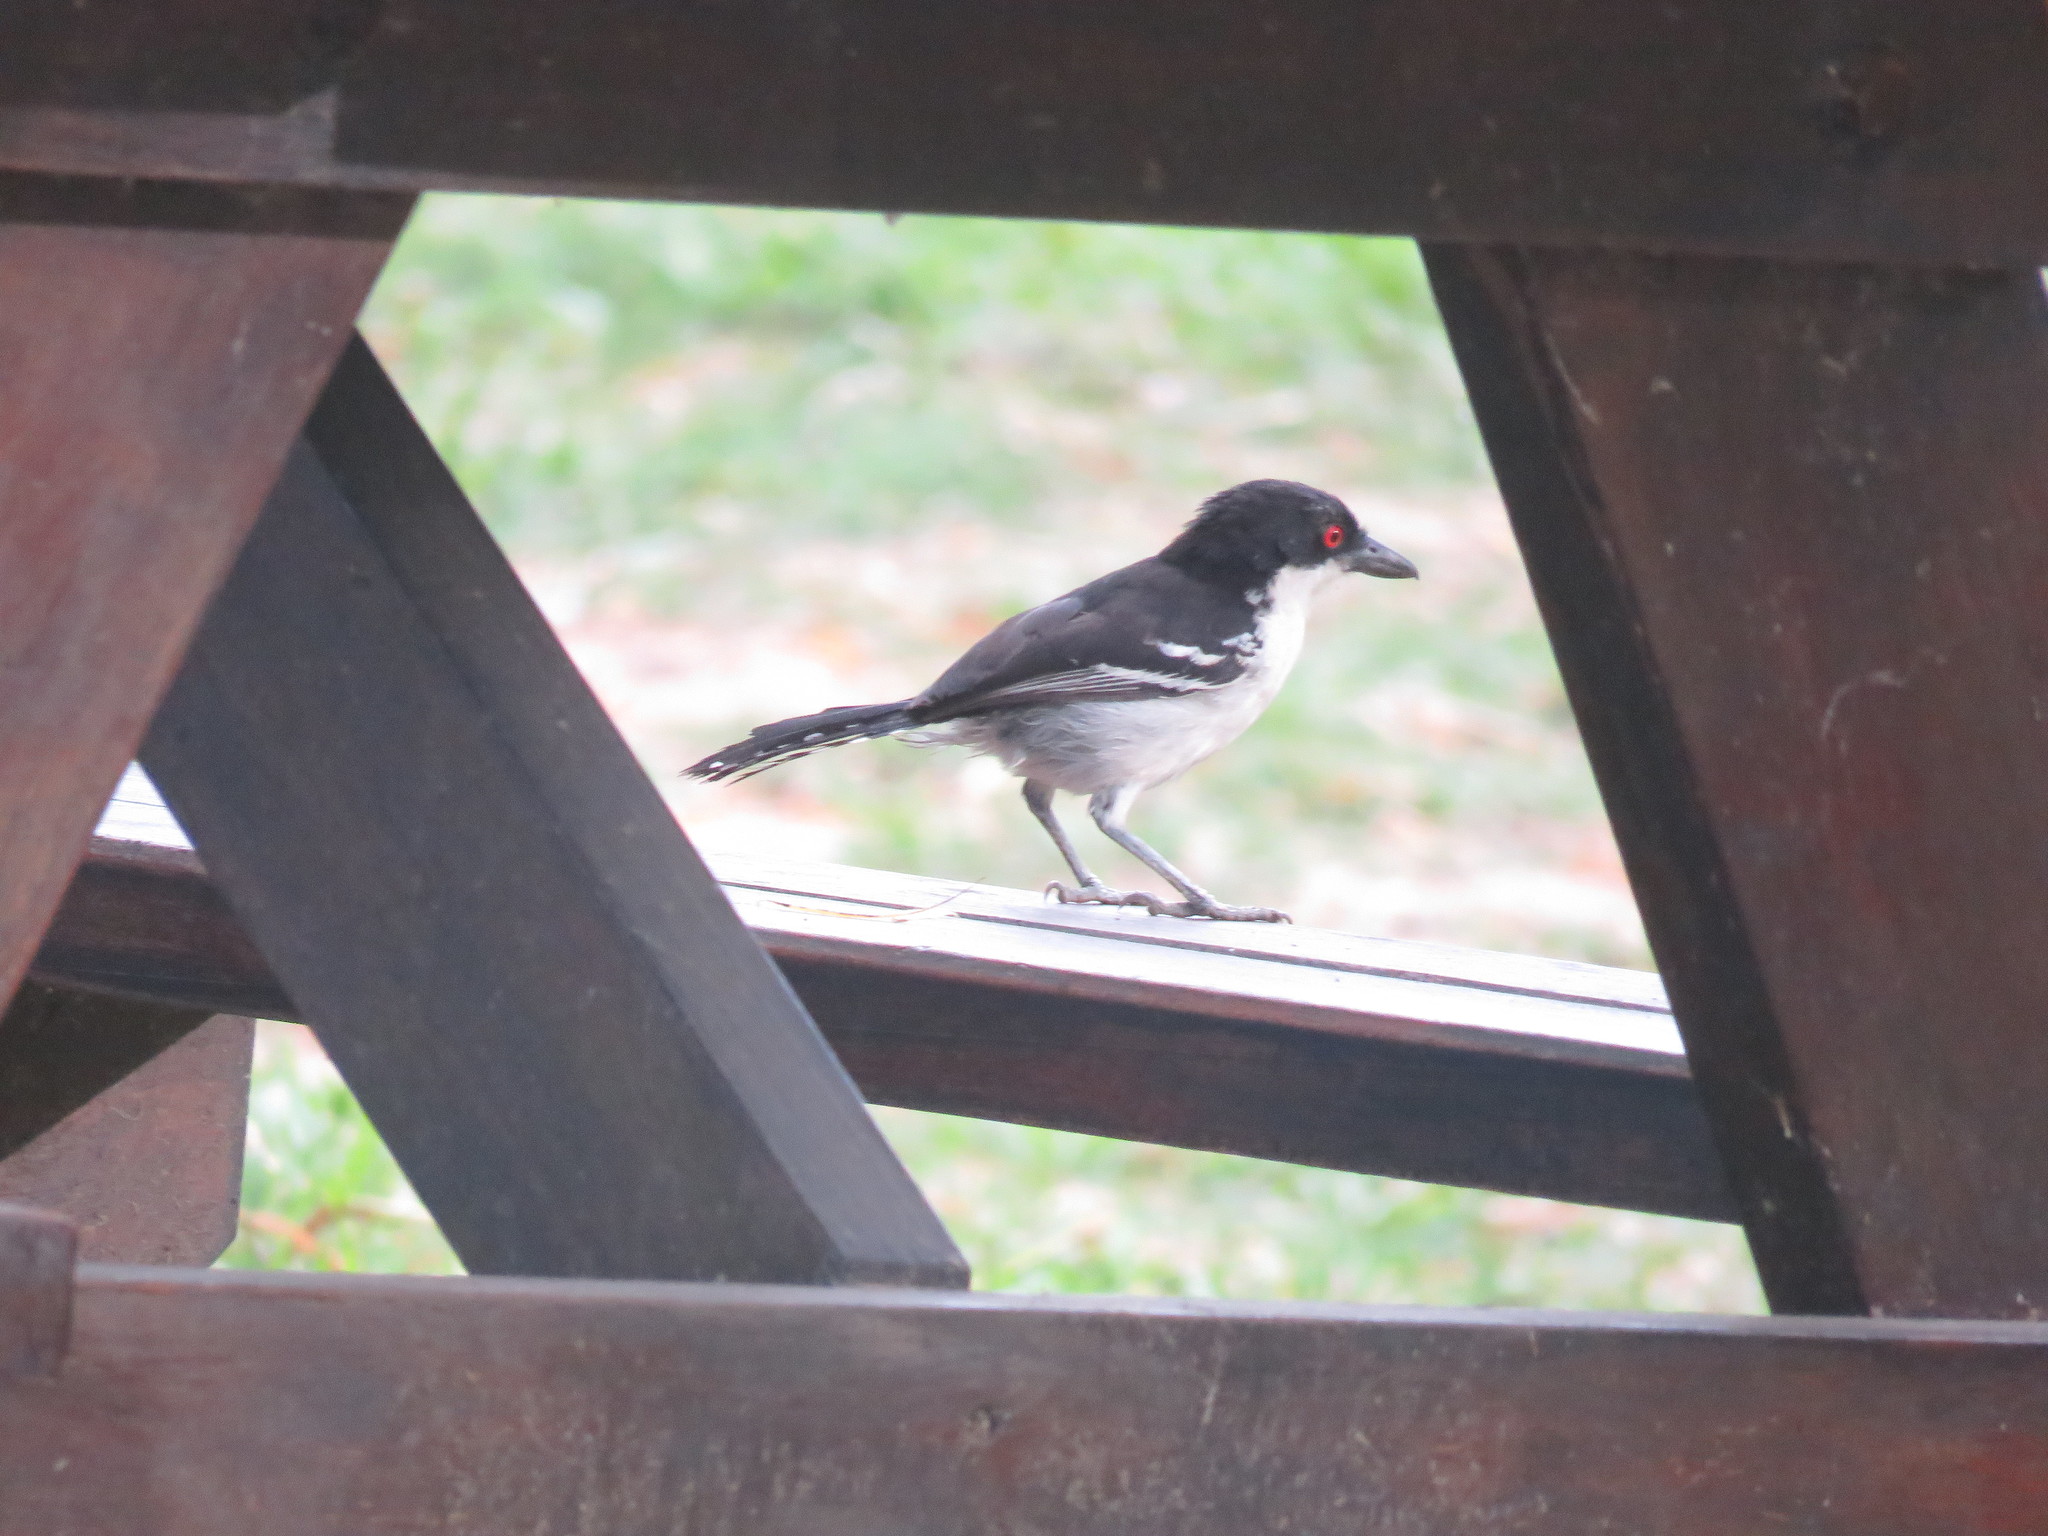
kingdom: Animalia
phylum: Chordata
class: Aves
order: Passeriformes
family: Thamnophilidae
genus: Taraba
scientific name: Taraba major
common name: Great antshrike
